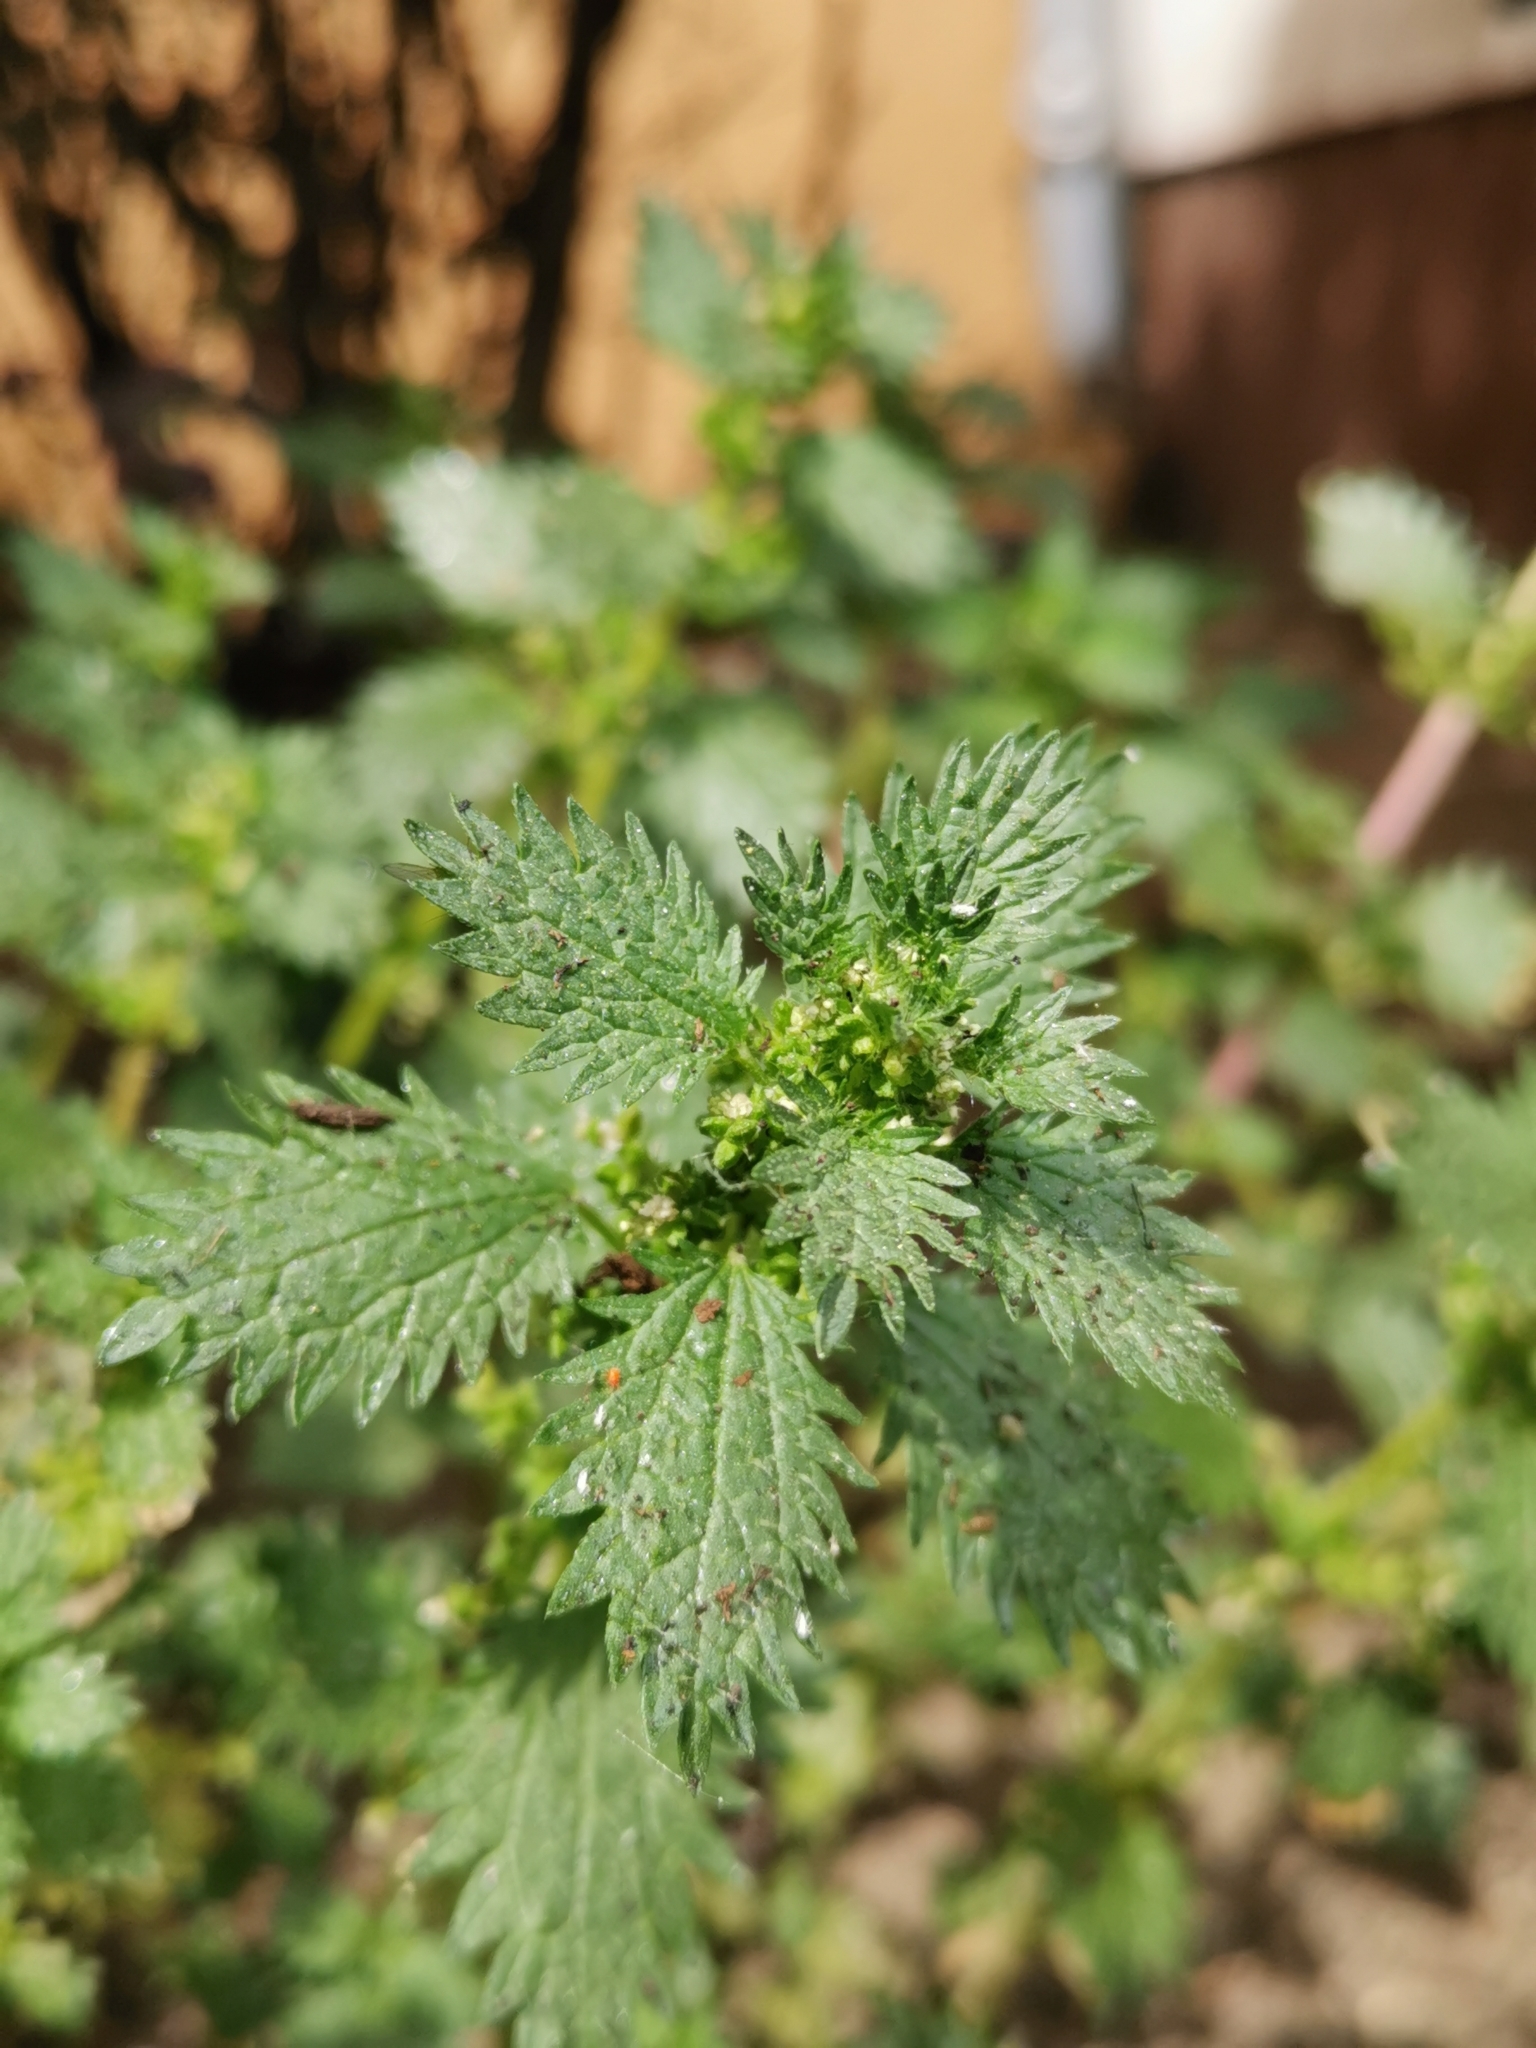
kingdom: Plantae
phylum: Tracheophyta
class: Magnoliopsida
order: Rosales
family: Urticaceae
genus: Urtica
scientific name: Urtica urens
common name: Dwarf nettle
